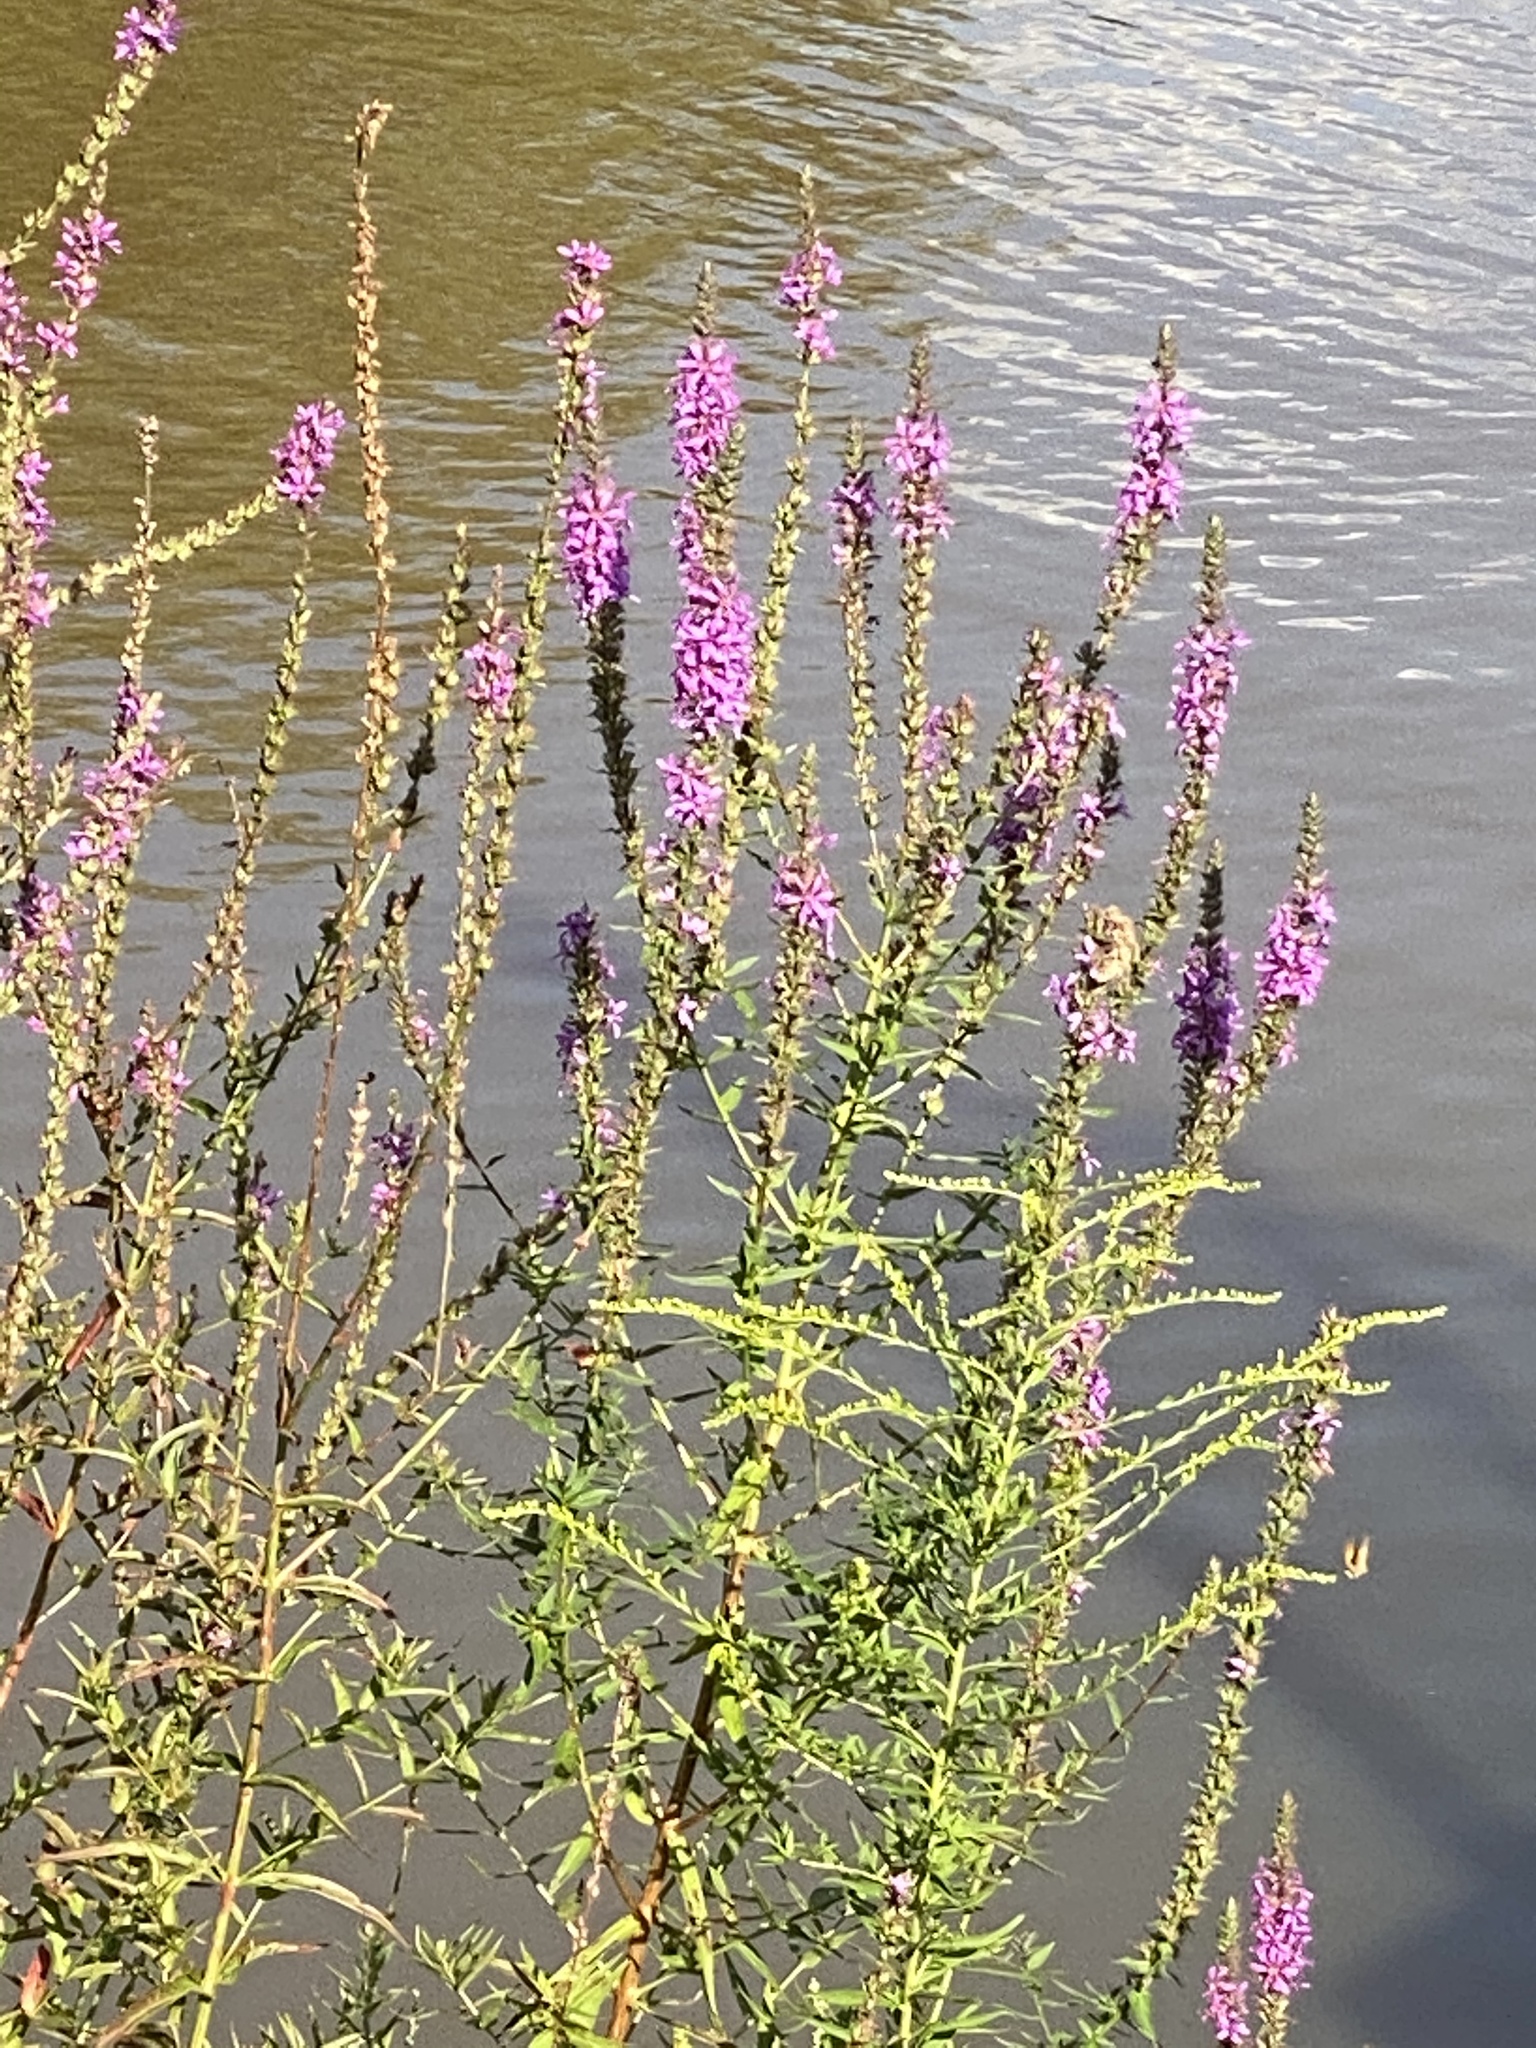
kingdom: Plantae
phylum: Tracheophyta
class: Magnoliopsida
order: Myrtales
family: Lythraceae
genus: Lythrum
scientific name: Lythrum salicaria
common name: Purple loosestrife
